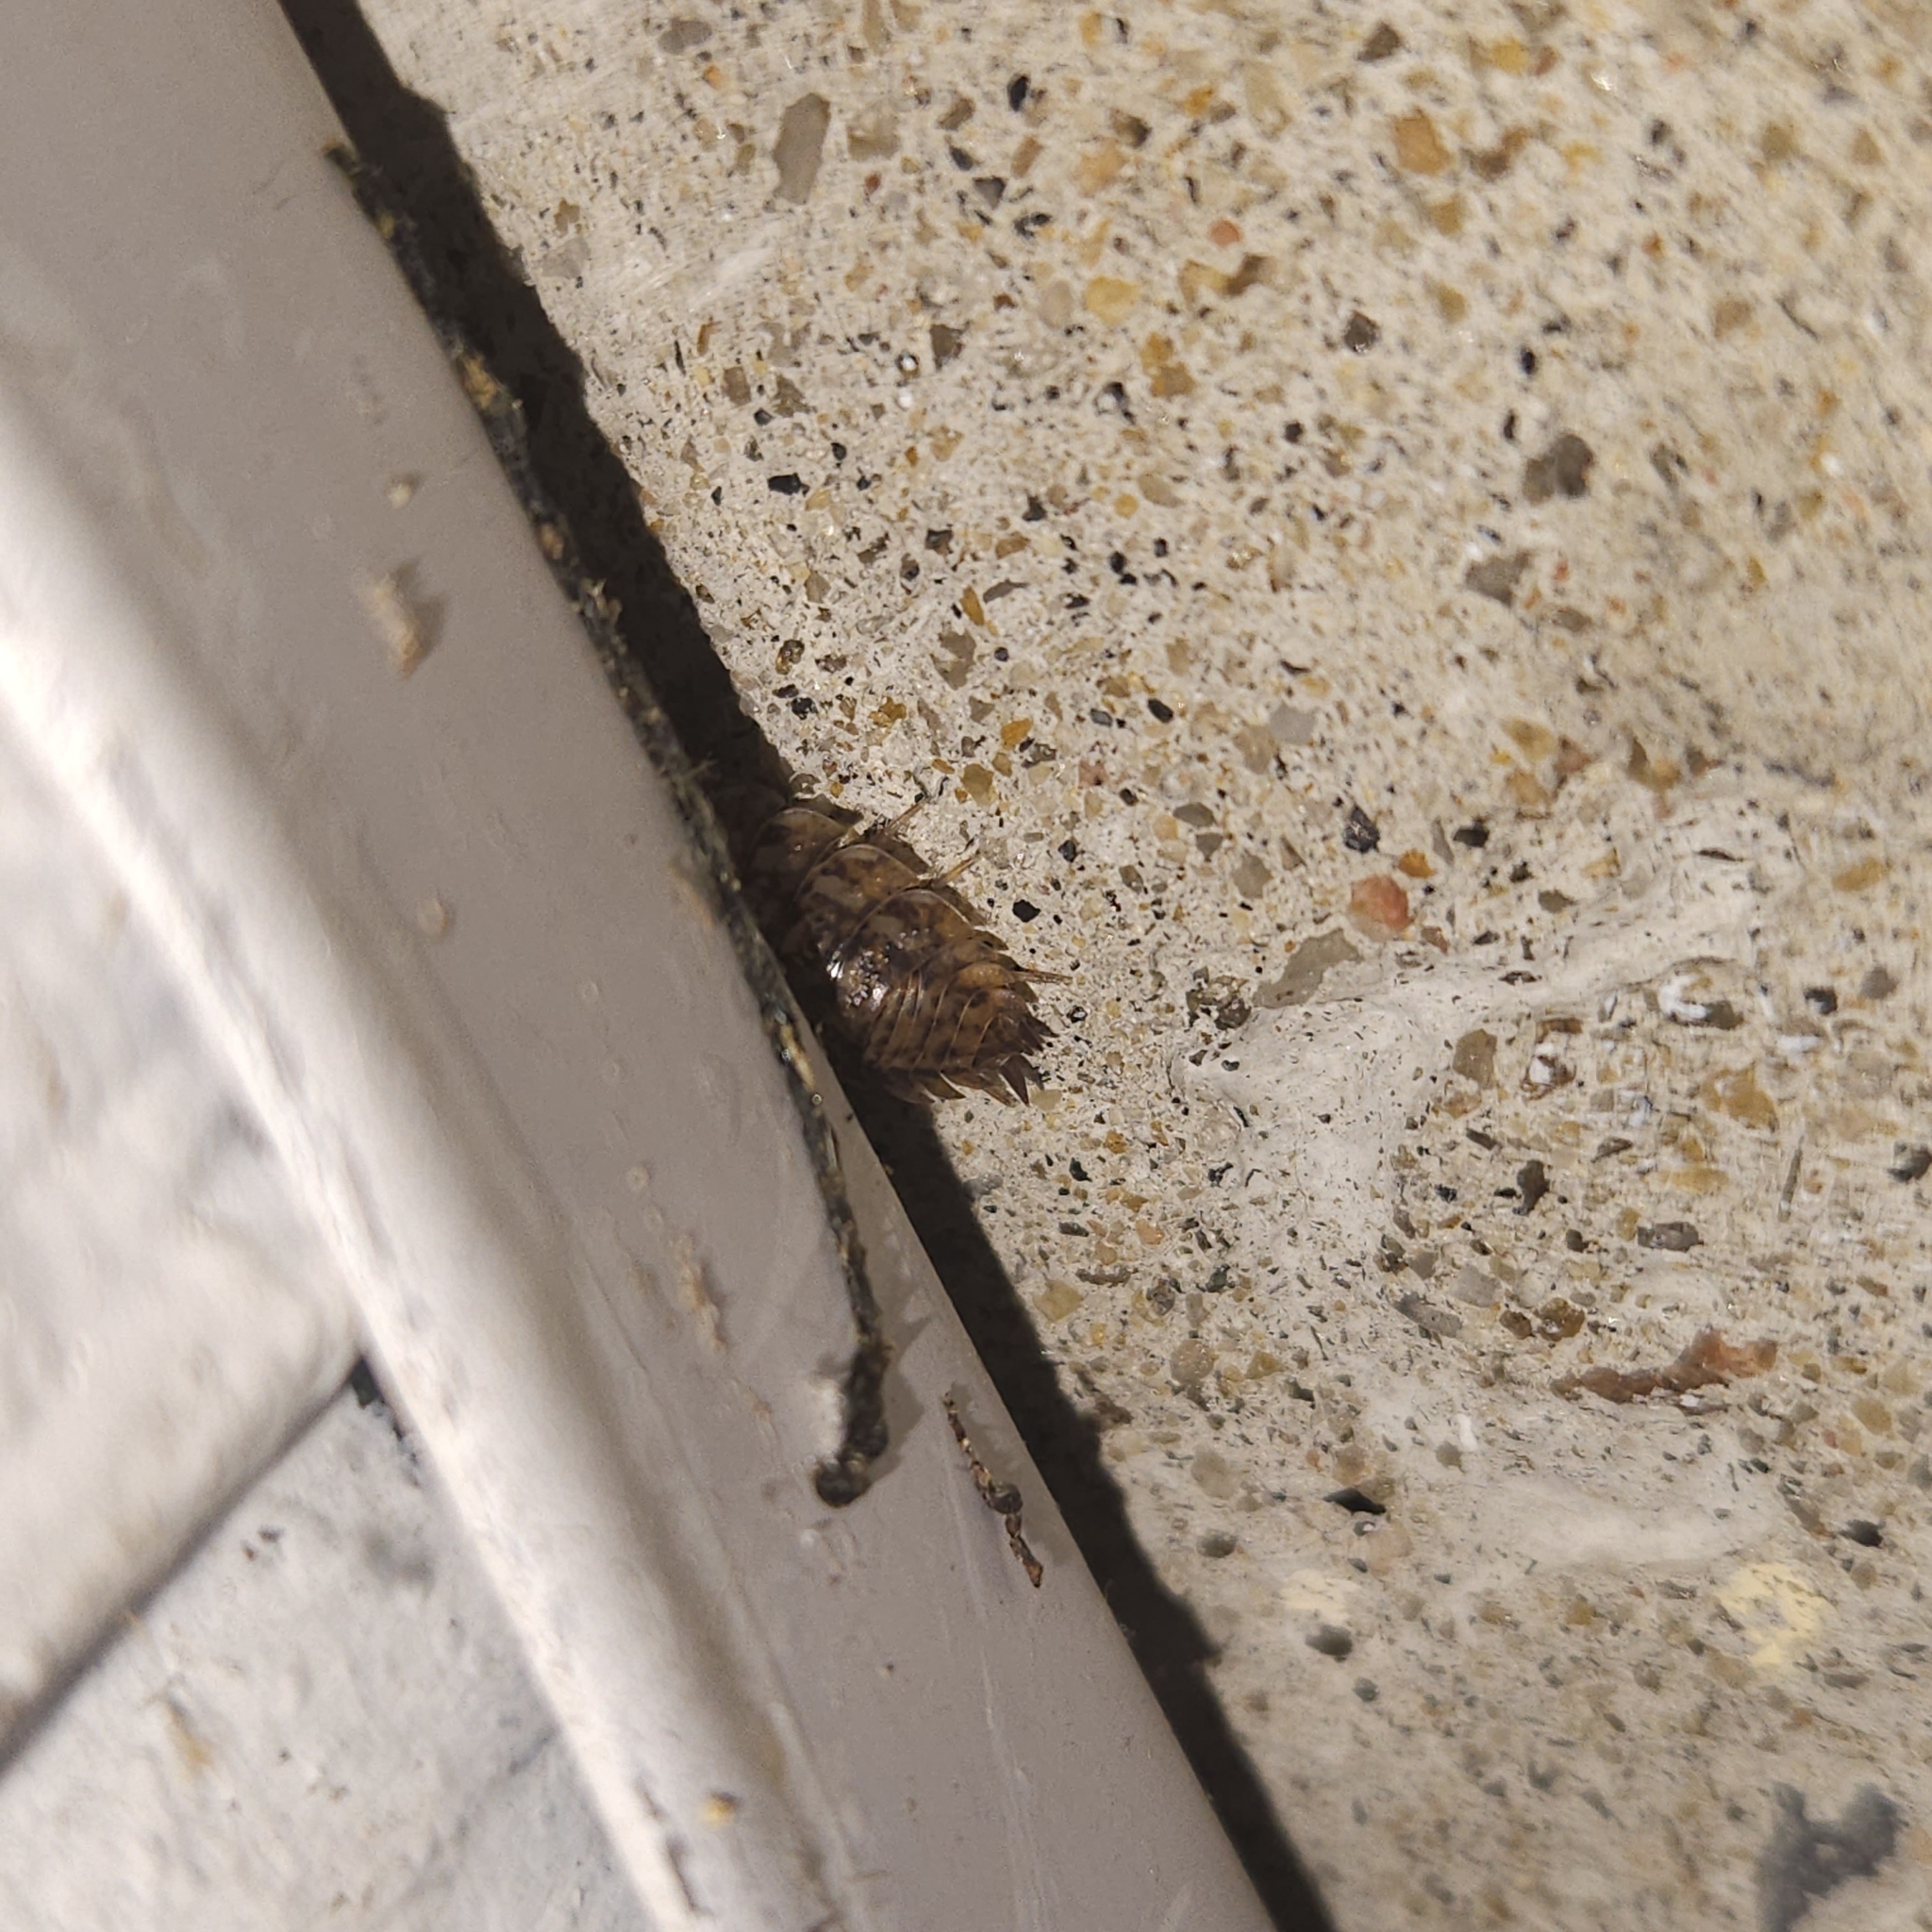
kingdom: Animalia
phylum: Arthropoda
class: Malacostraca
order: Isopoda
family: Trachelipodidae
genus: Trachelipus
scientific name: Trachelipus rathkii
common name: Isopod
